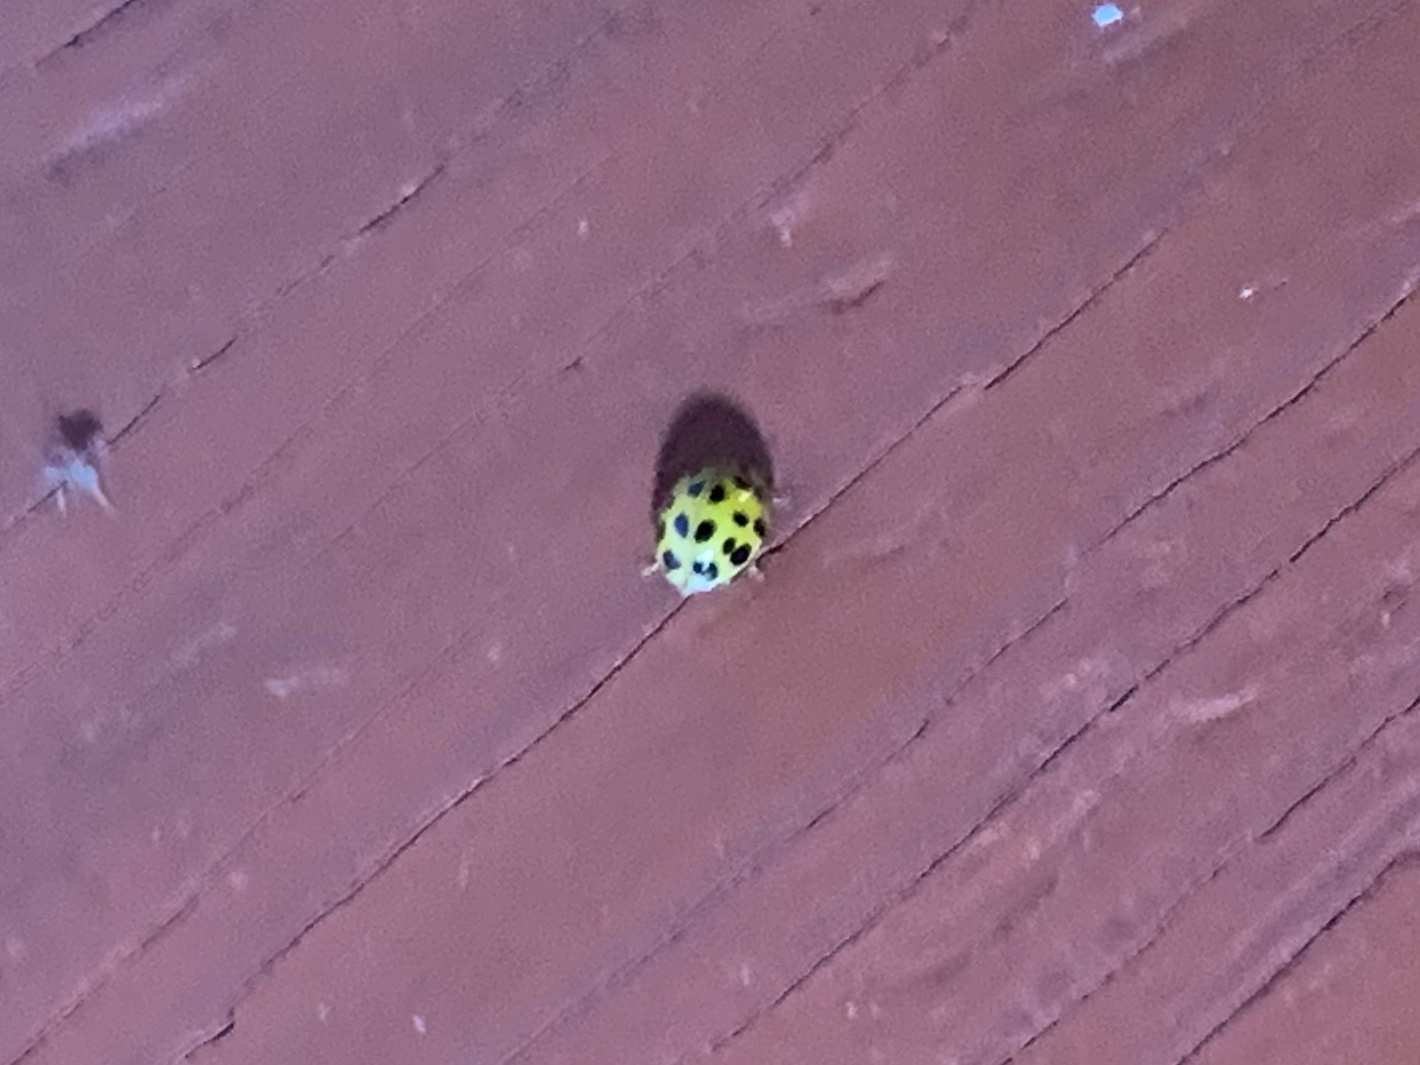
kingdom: Animalia
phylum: Arthropoda
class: Insecta
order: Coleoptera
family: Coccinellidae
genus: Harmonia
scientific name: Harmonia axyridis
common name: Harlequin ladybird
